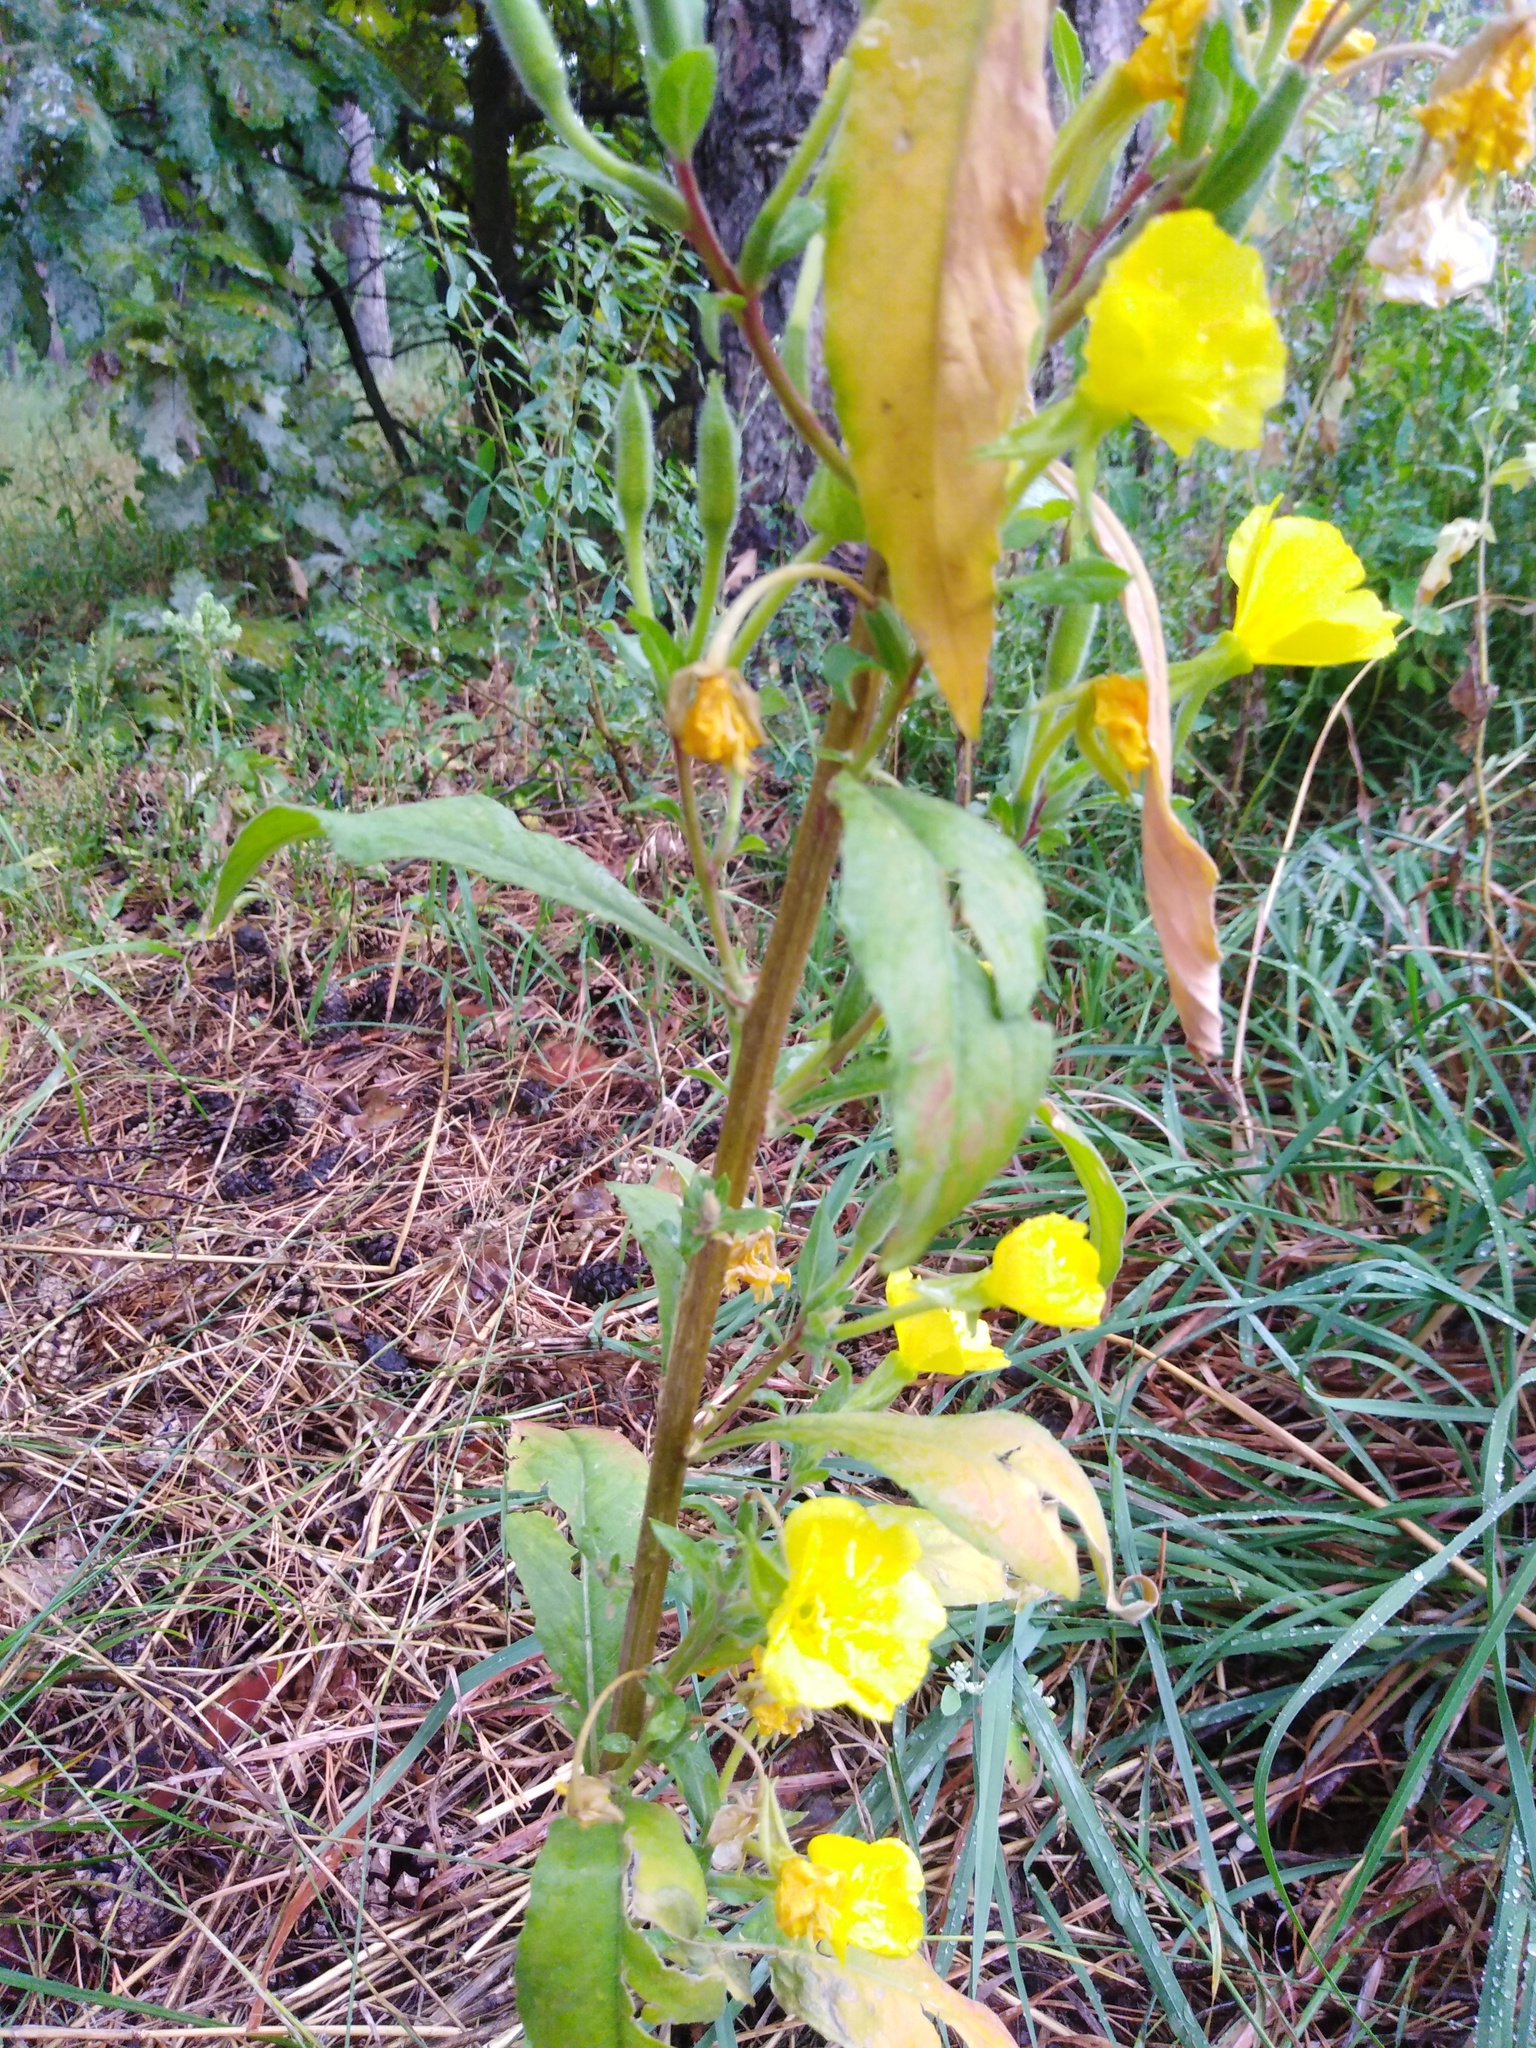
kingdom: Plantae
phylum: Tracheophyta
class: Magnoliopsida
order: Myrtales
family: Onagraceae
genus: Oenothera
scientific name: Oenothera rubricaulis
